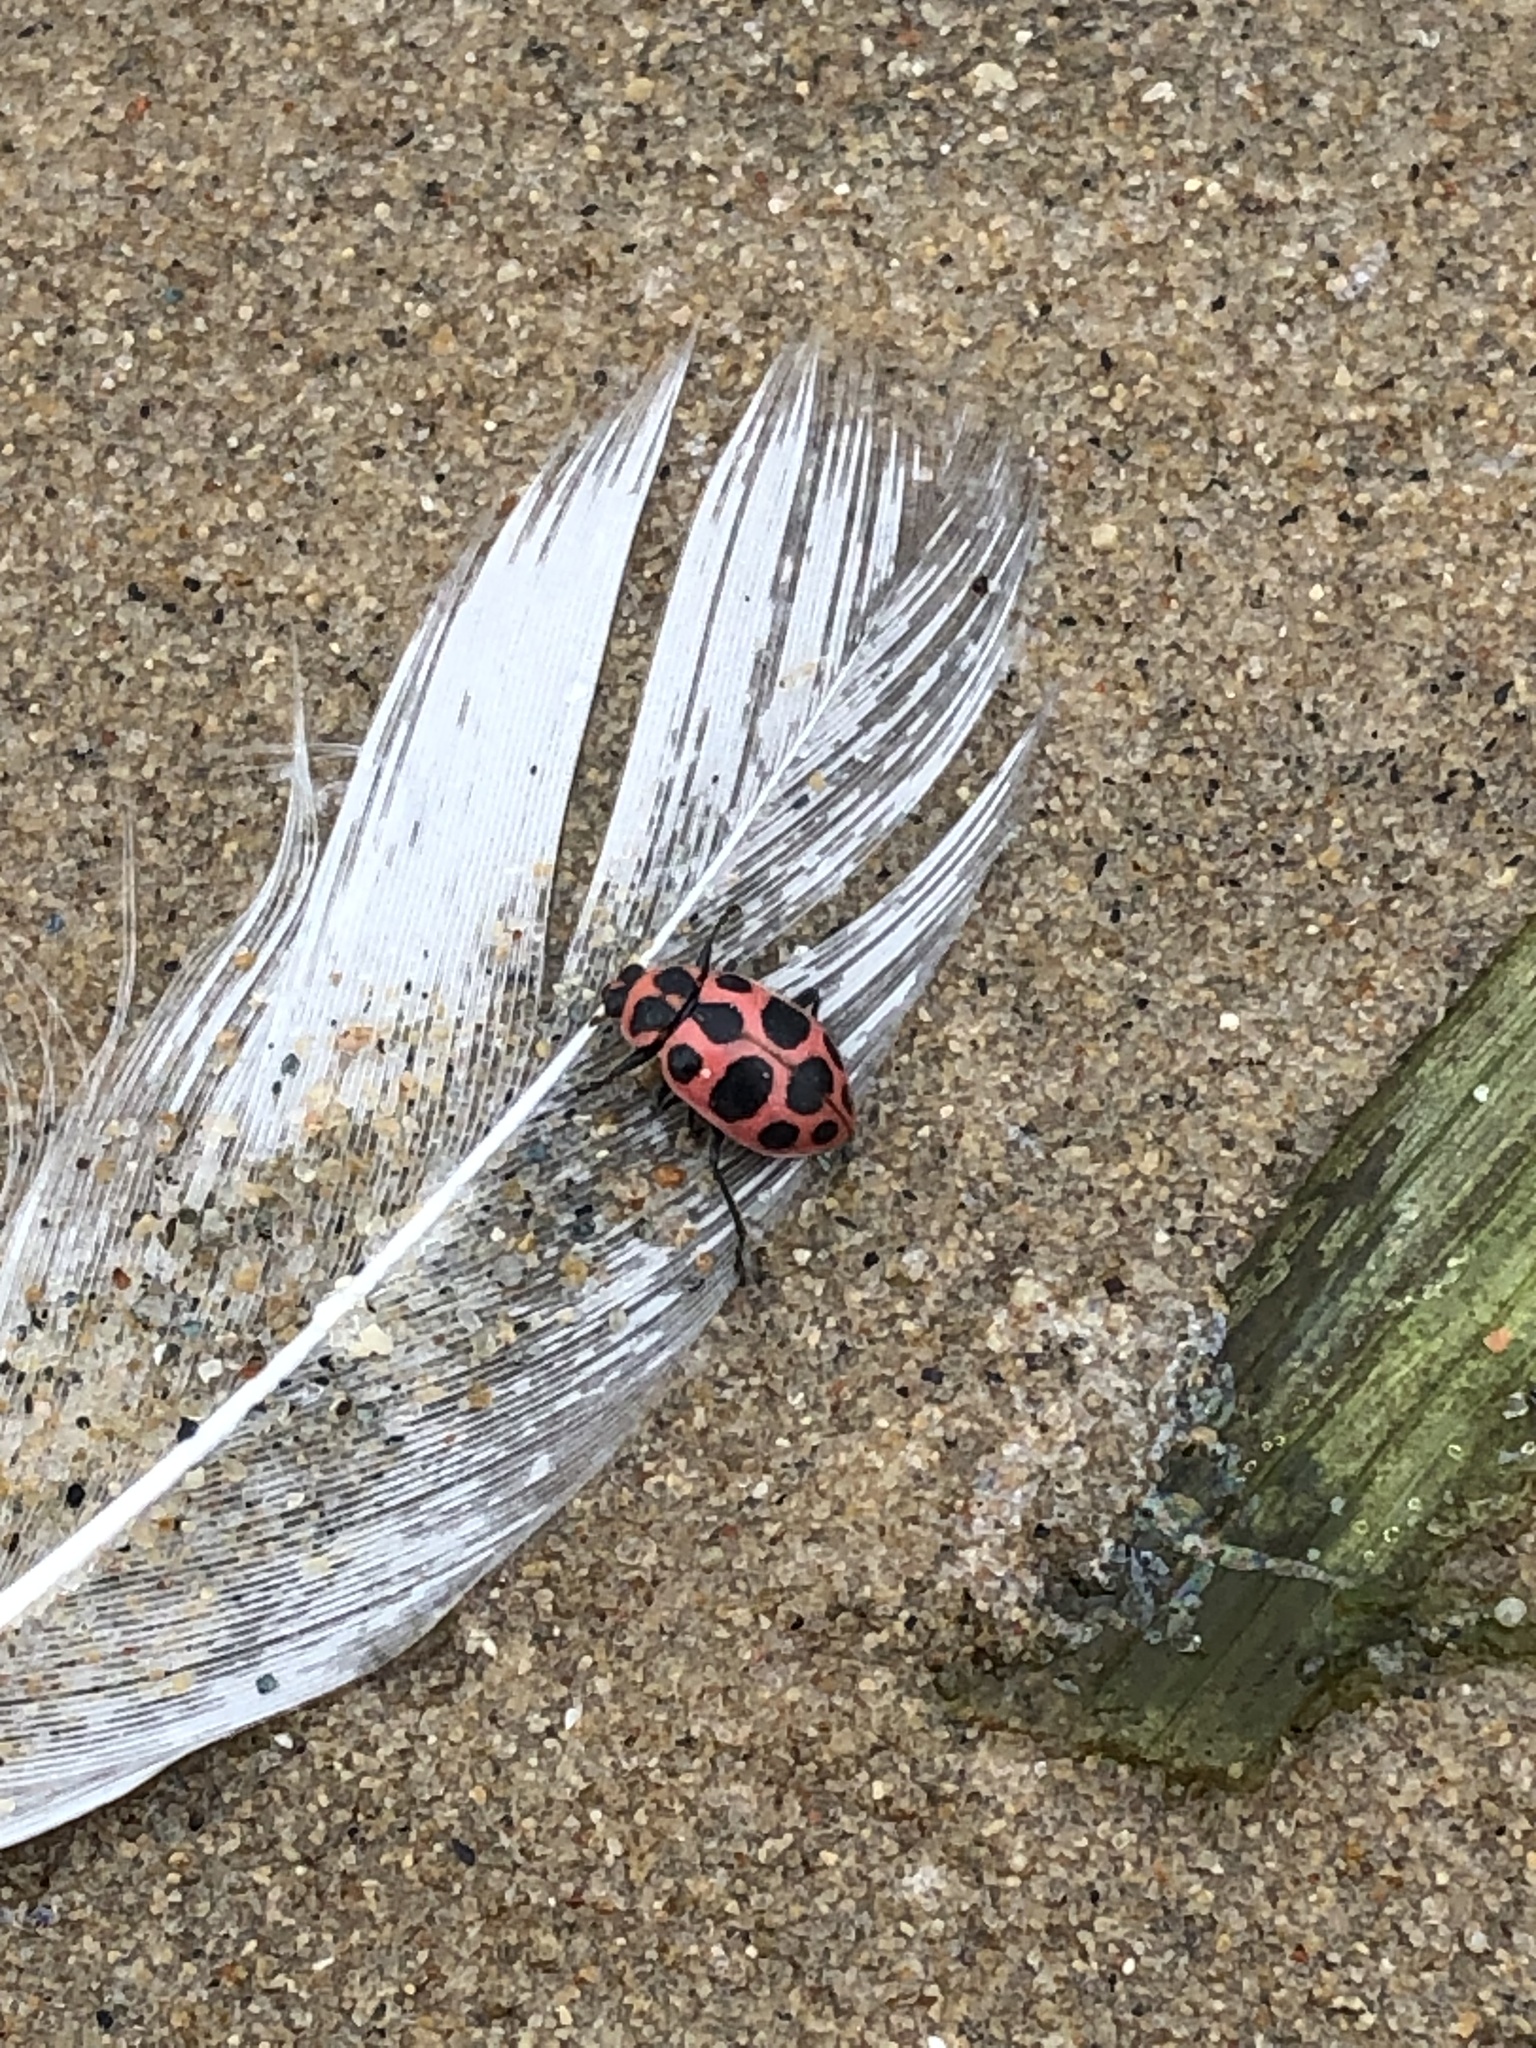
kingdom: Animalia
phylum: Arthropoda
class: Insecta
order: Coleoptera
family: Coccinellidae
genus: Coleomegilla
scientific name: Coleomegilla maculata
